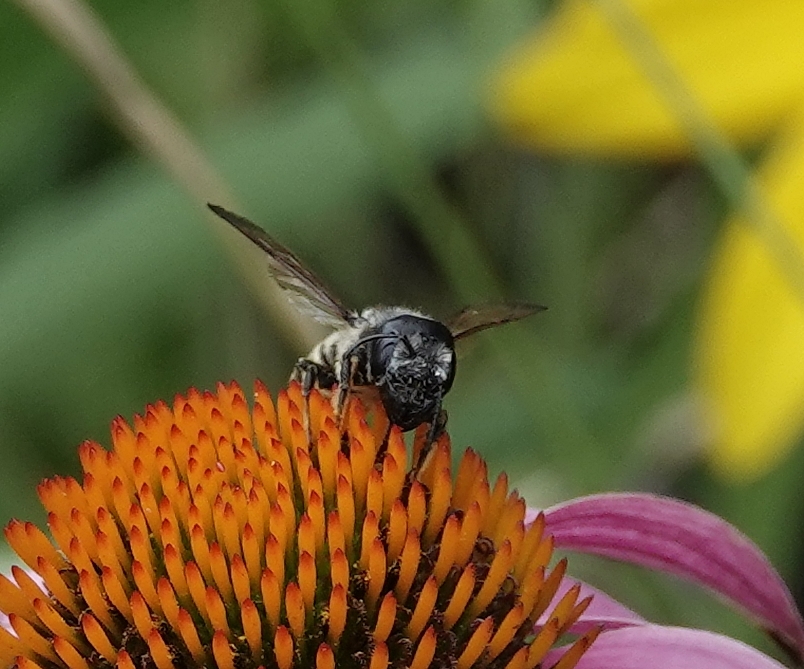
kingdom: Animalia
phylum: Arthropoda
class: Insecta
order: Hymenoptera
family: Megachilidae
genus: Megachile
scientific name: Megachile pugnata
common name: Pugnacious leafcutter bee
